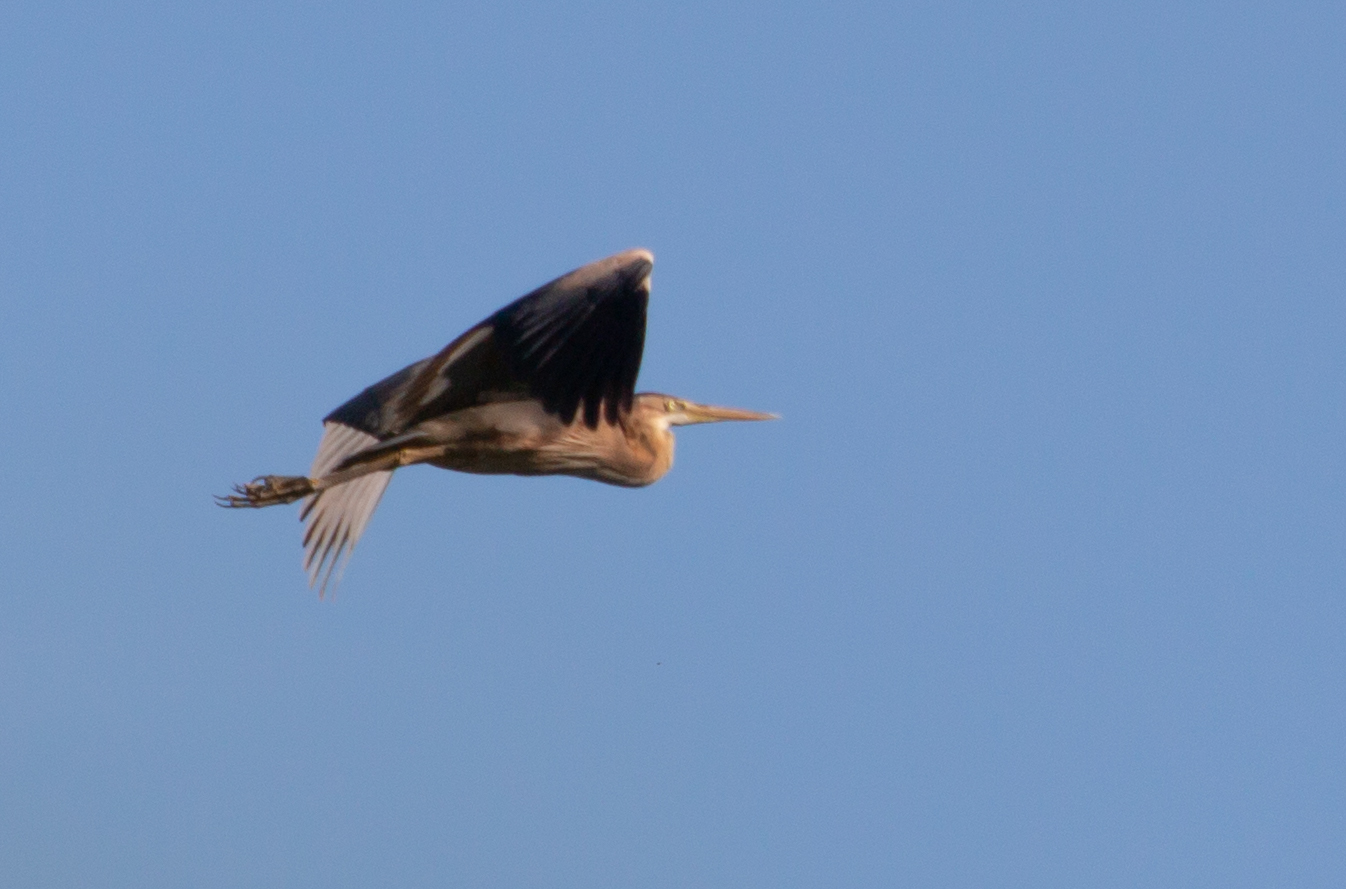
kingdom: Animalia
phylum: Chordata
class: Aves
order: Pelecaniformes
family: Ardeidae
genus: Ardea
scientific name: Ardea purpurea
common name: Purple heron
